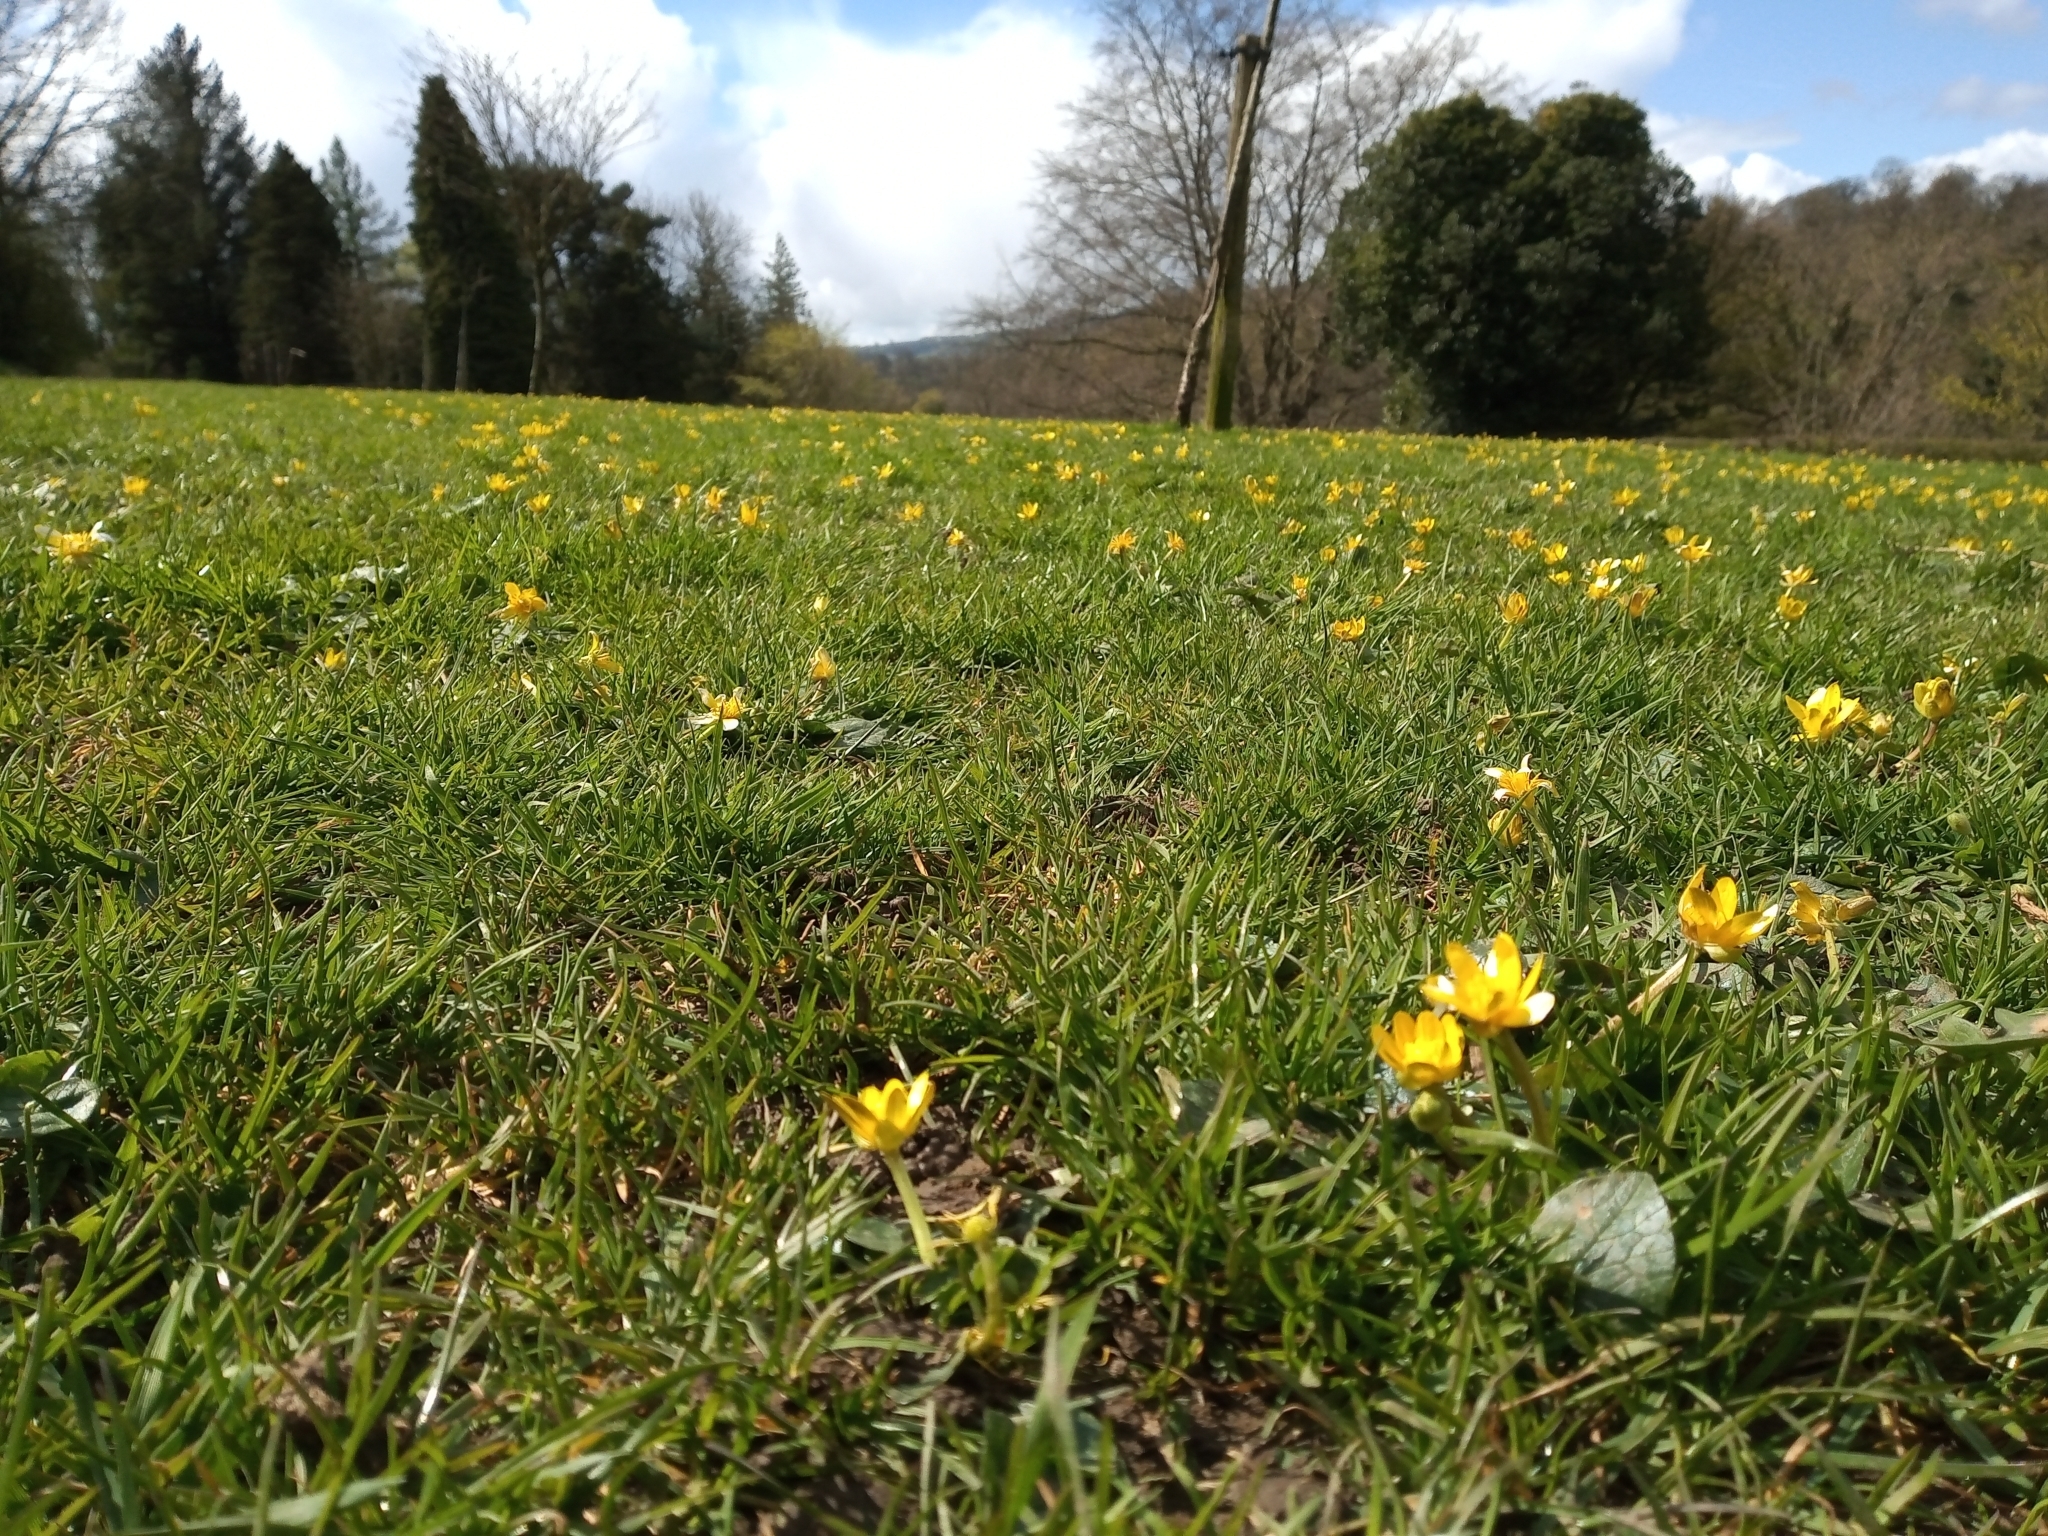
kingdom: Plantae
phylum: Tracheophyta
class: Magnoliopsida
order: Ranunculales
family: Ranunculaceae
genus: Ficaria
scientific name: Ficaria verna
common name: Lesser celandine
